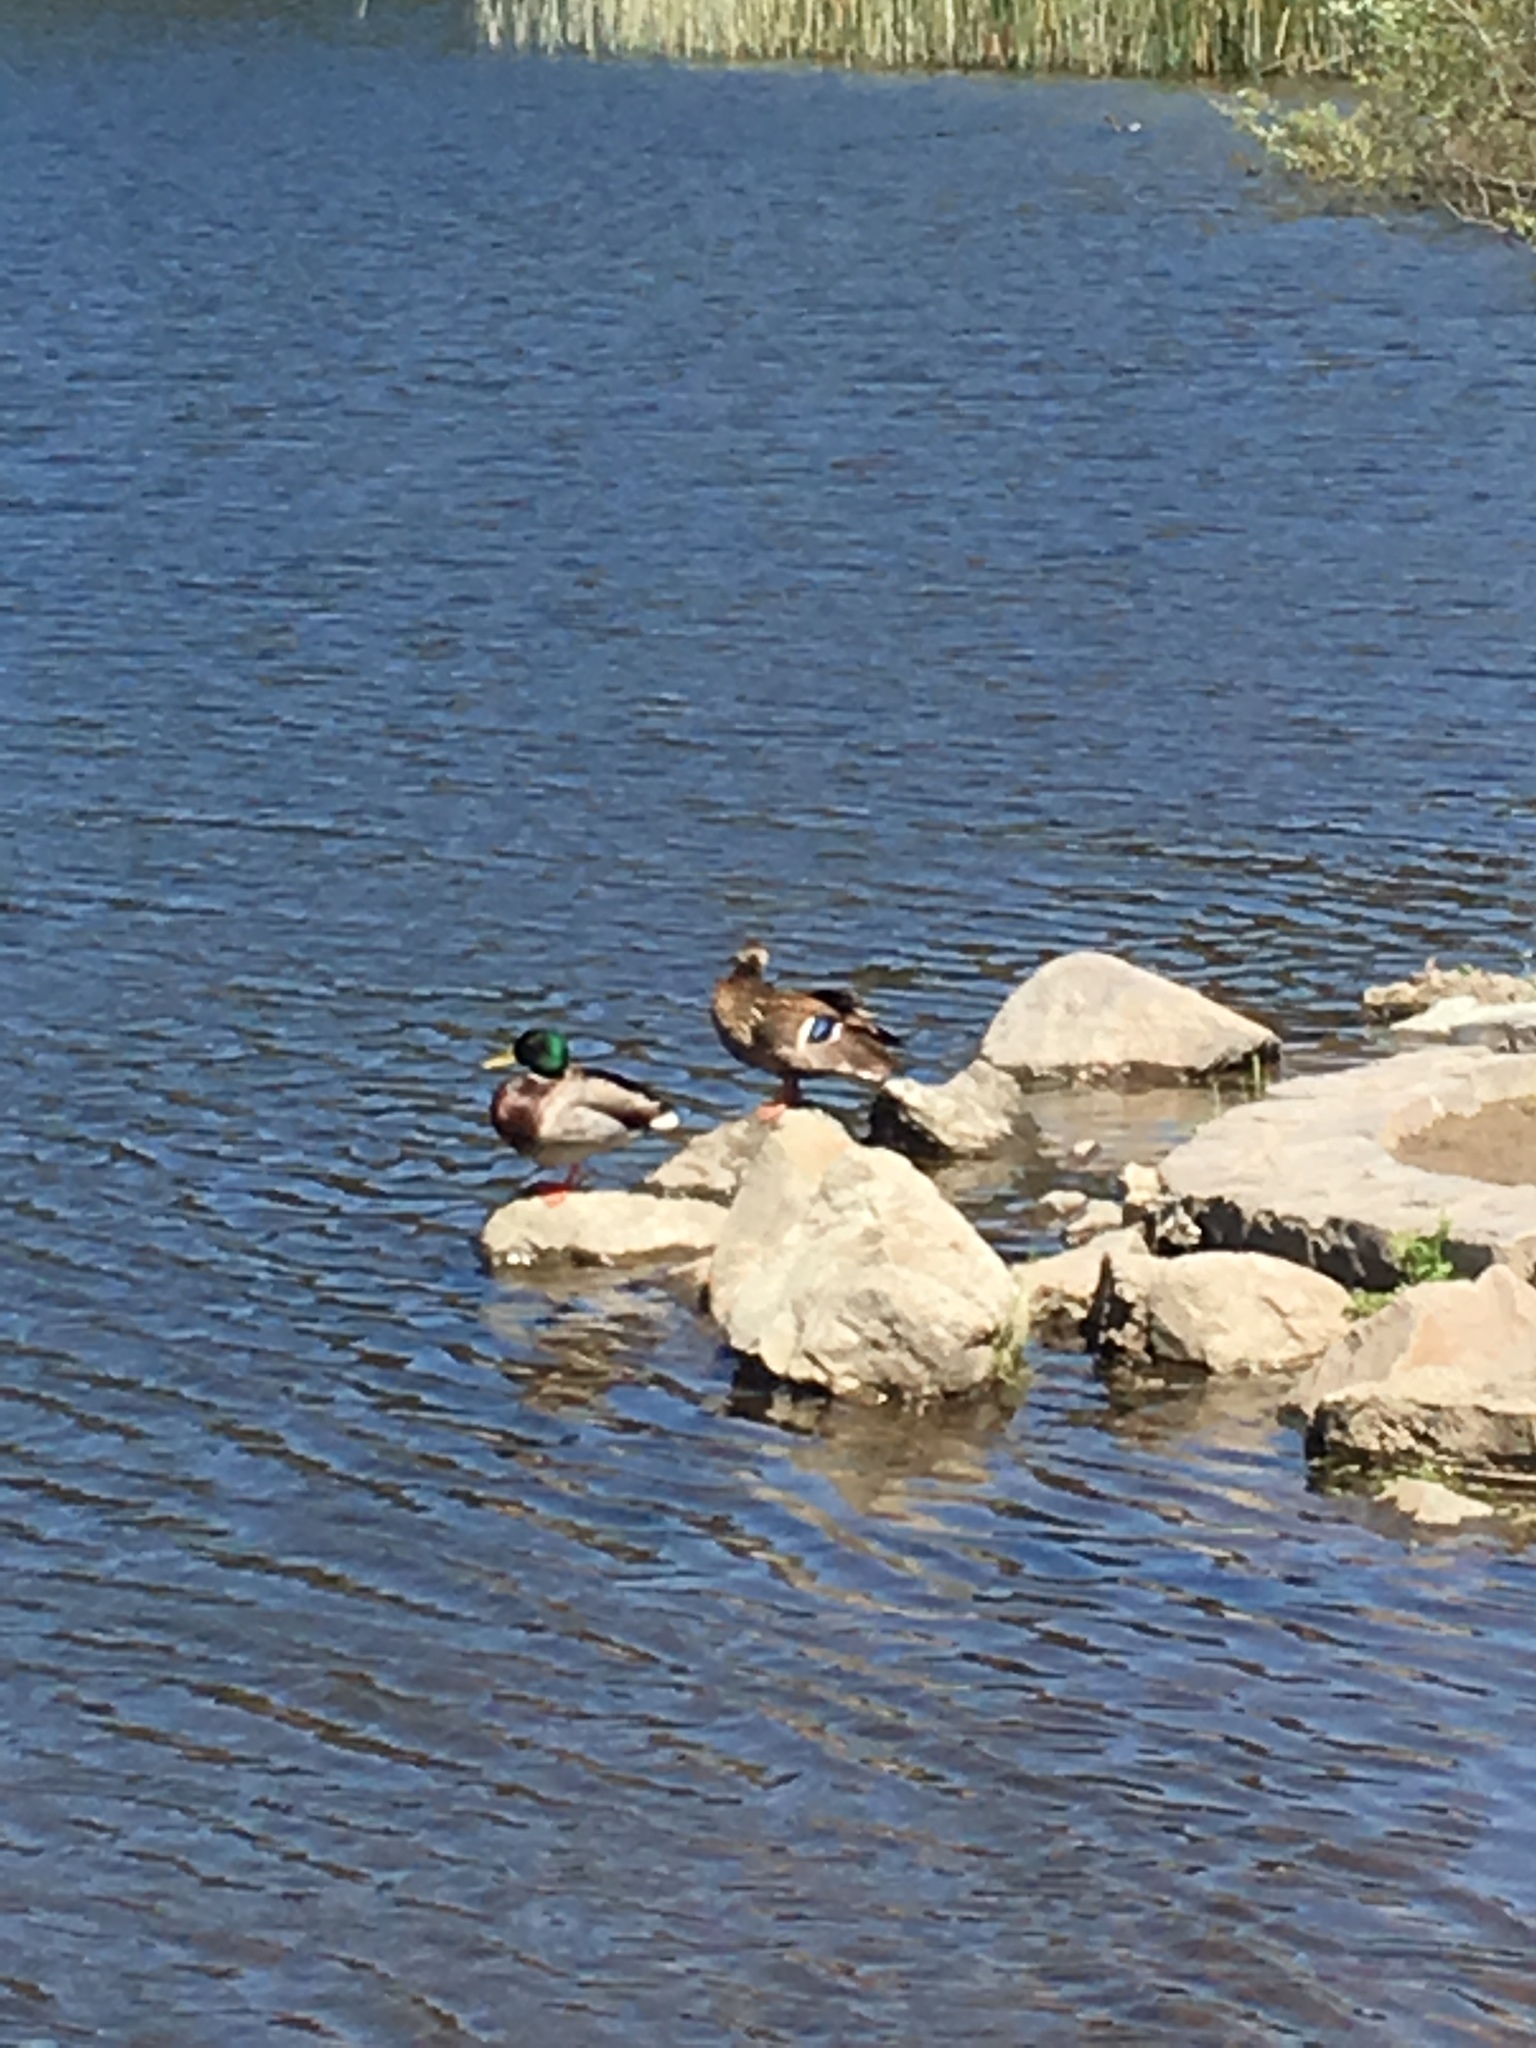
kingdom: Animalia
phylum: Chordata
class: Aves
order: Anseriformes
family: Anatidae
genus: Anas
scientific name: Anas platyrhynchos
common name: Mallard
